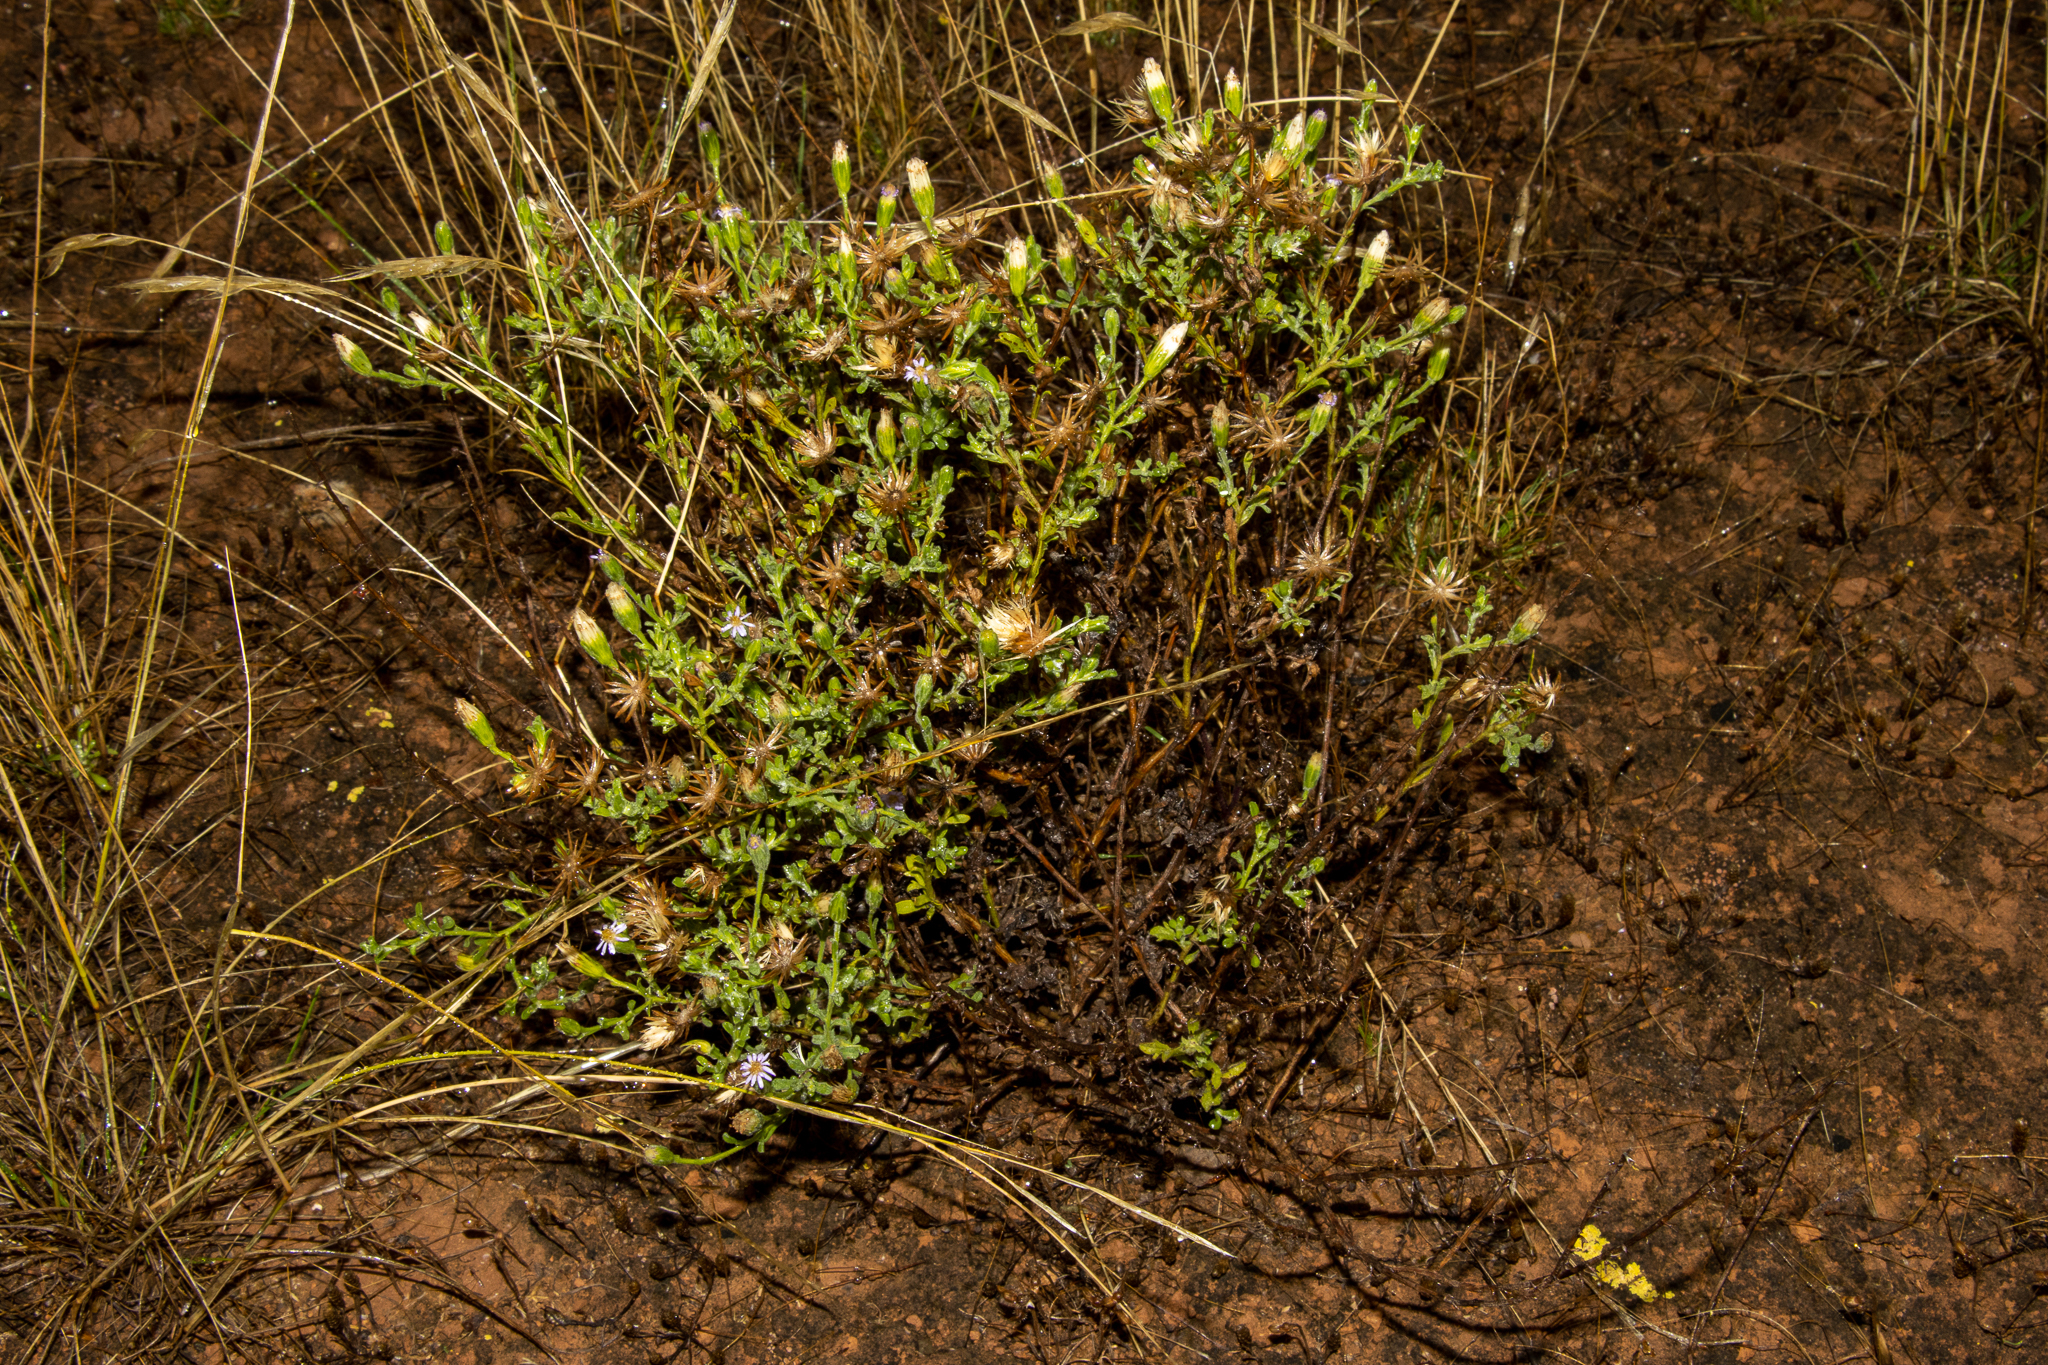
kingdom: Plantae
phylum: Tracheophyta
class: Magnoliopsida
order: Asterales
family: Asteraceae
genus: Vittadinia
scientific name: Vittadinia gracilis
